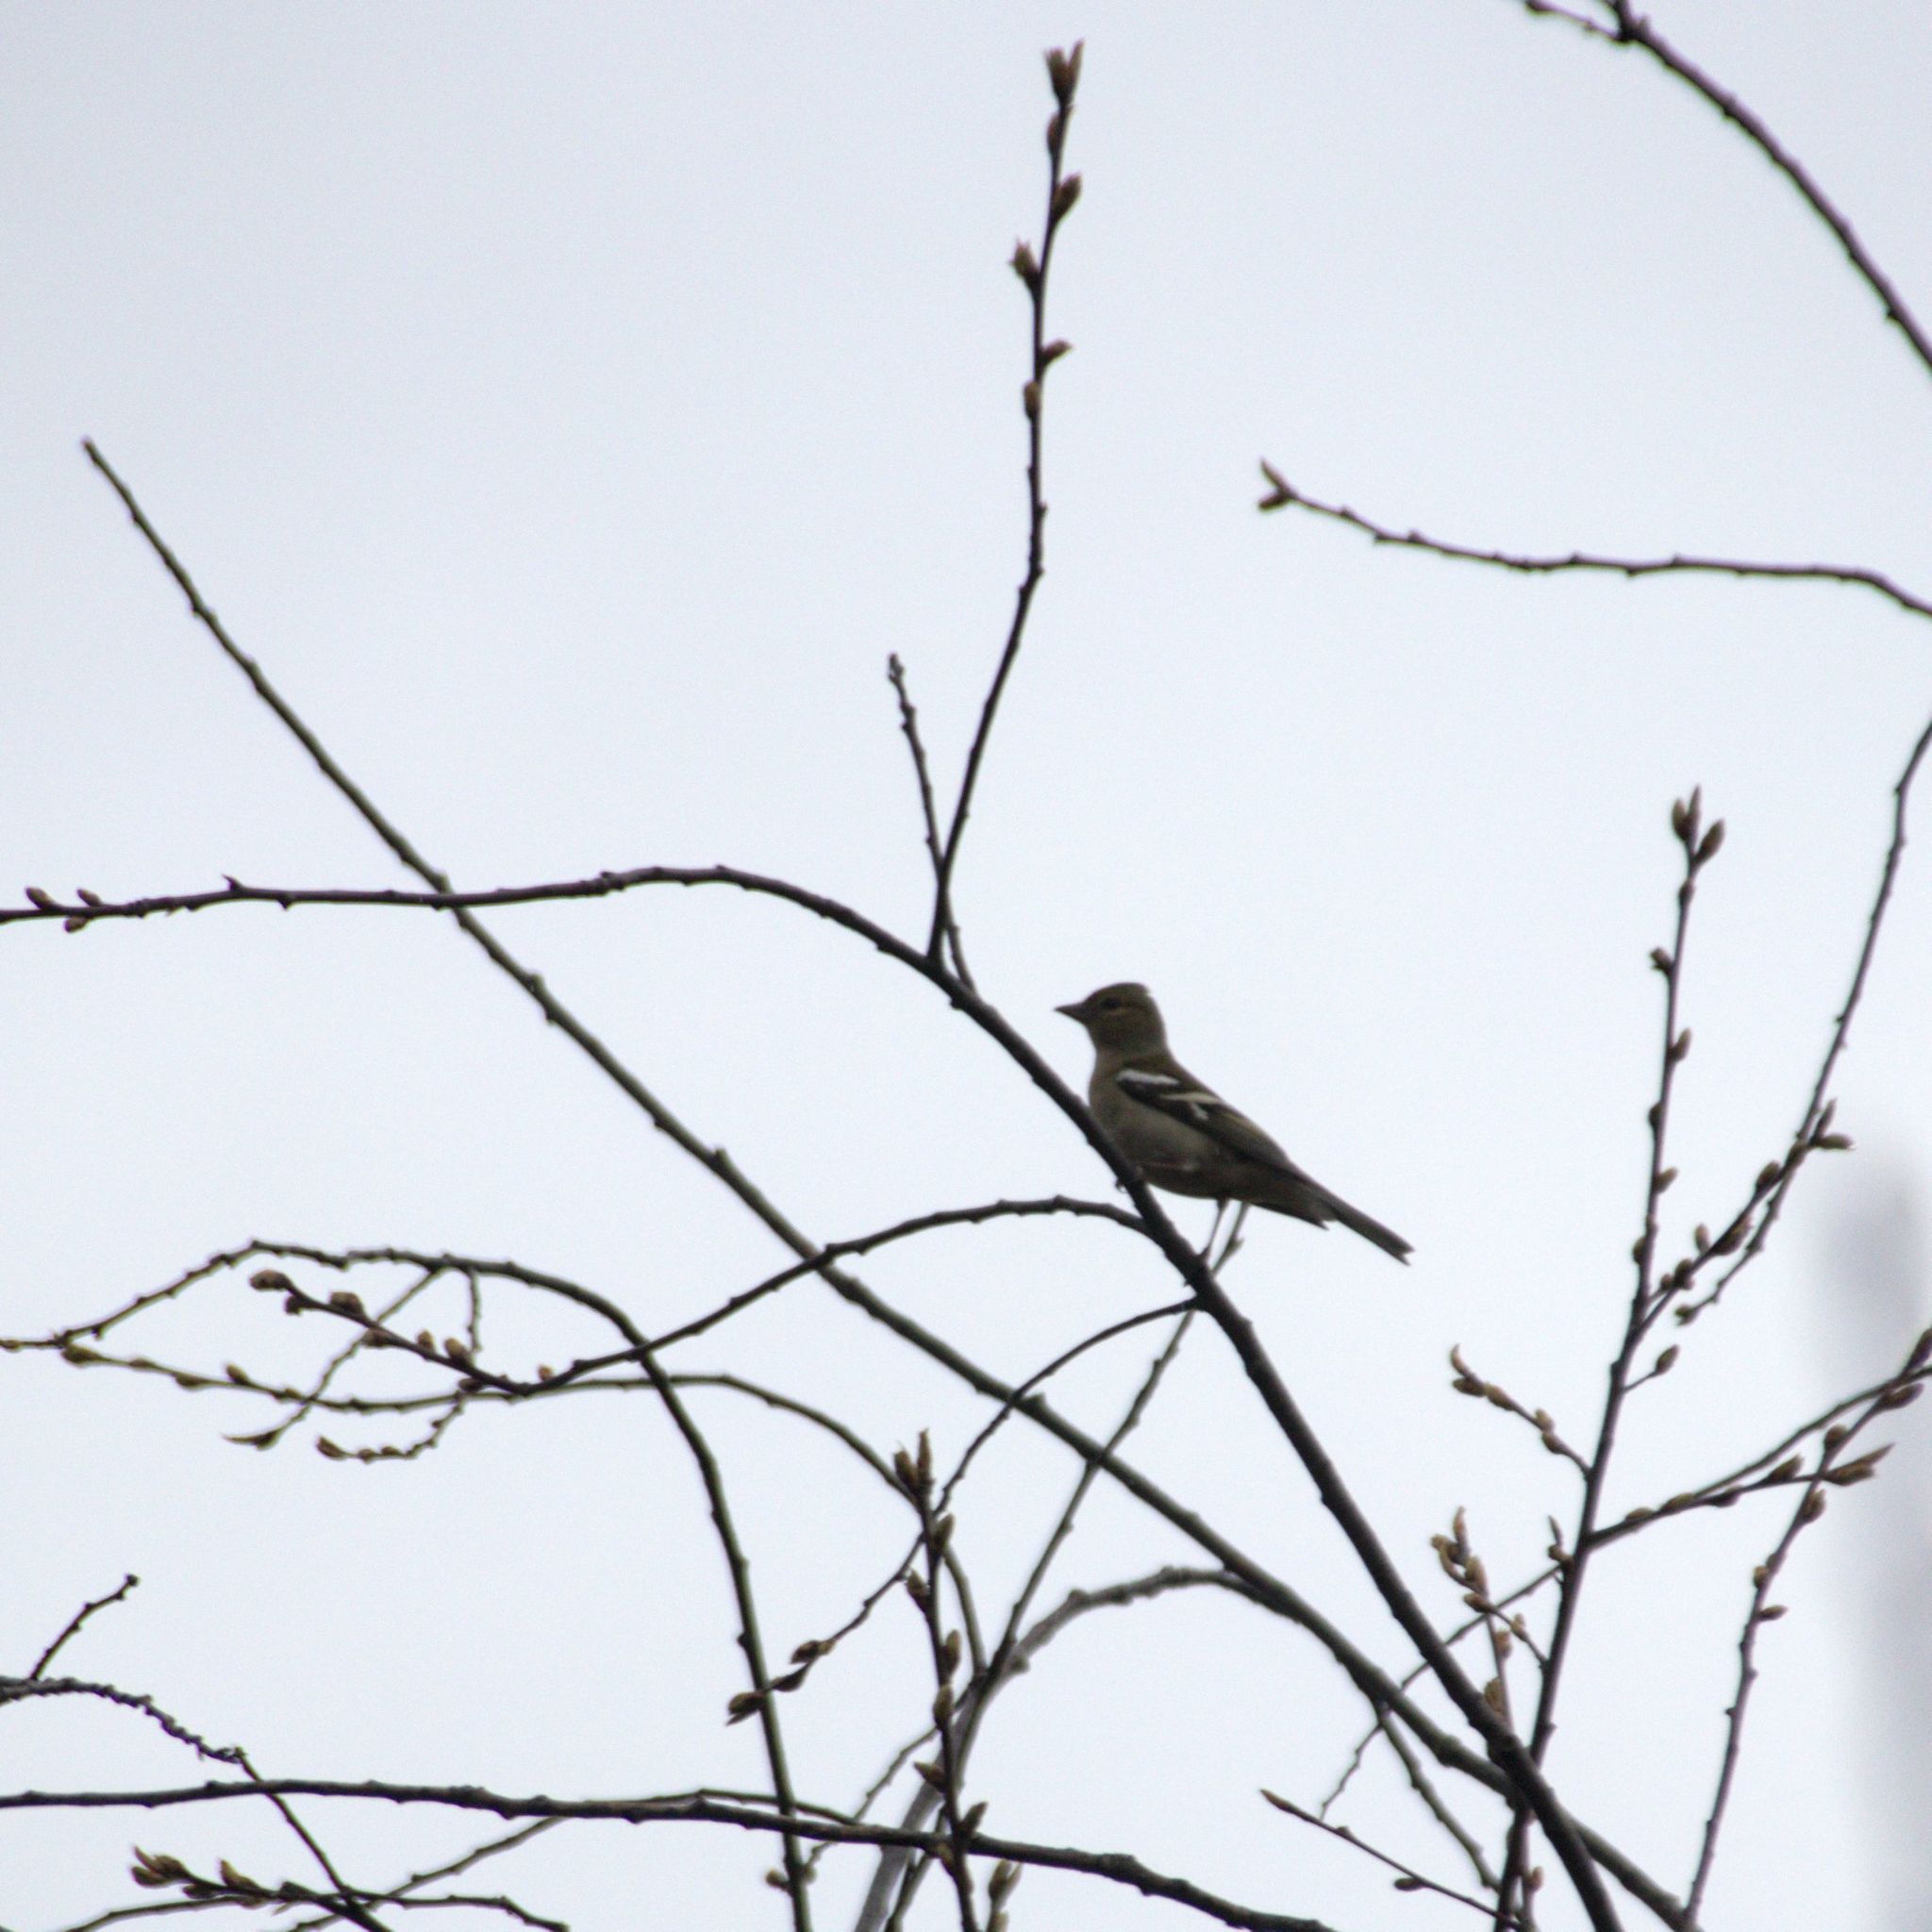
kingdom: Animalia
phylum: Chordata
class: Aves
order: Passeriformes
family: Fringillidae
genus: Fringilla
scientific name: Fringilla coelebs
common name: Common chaffinch
